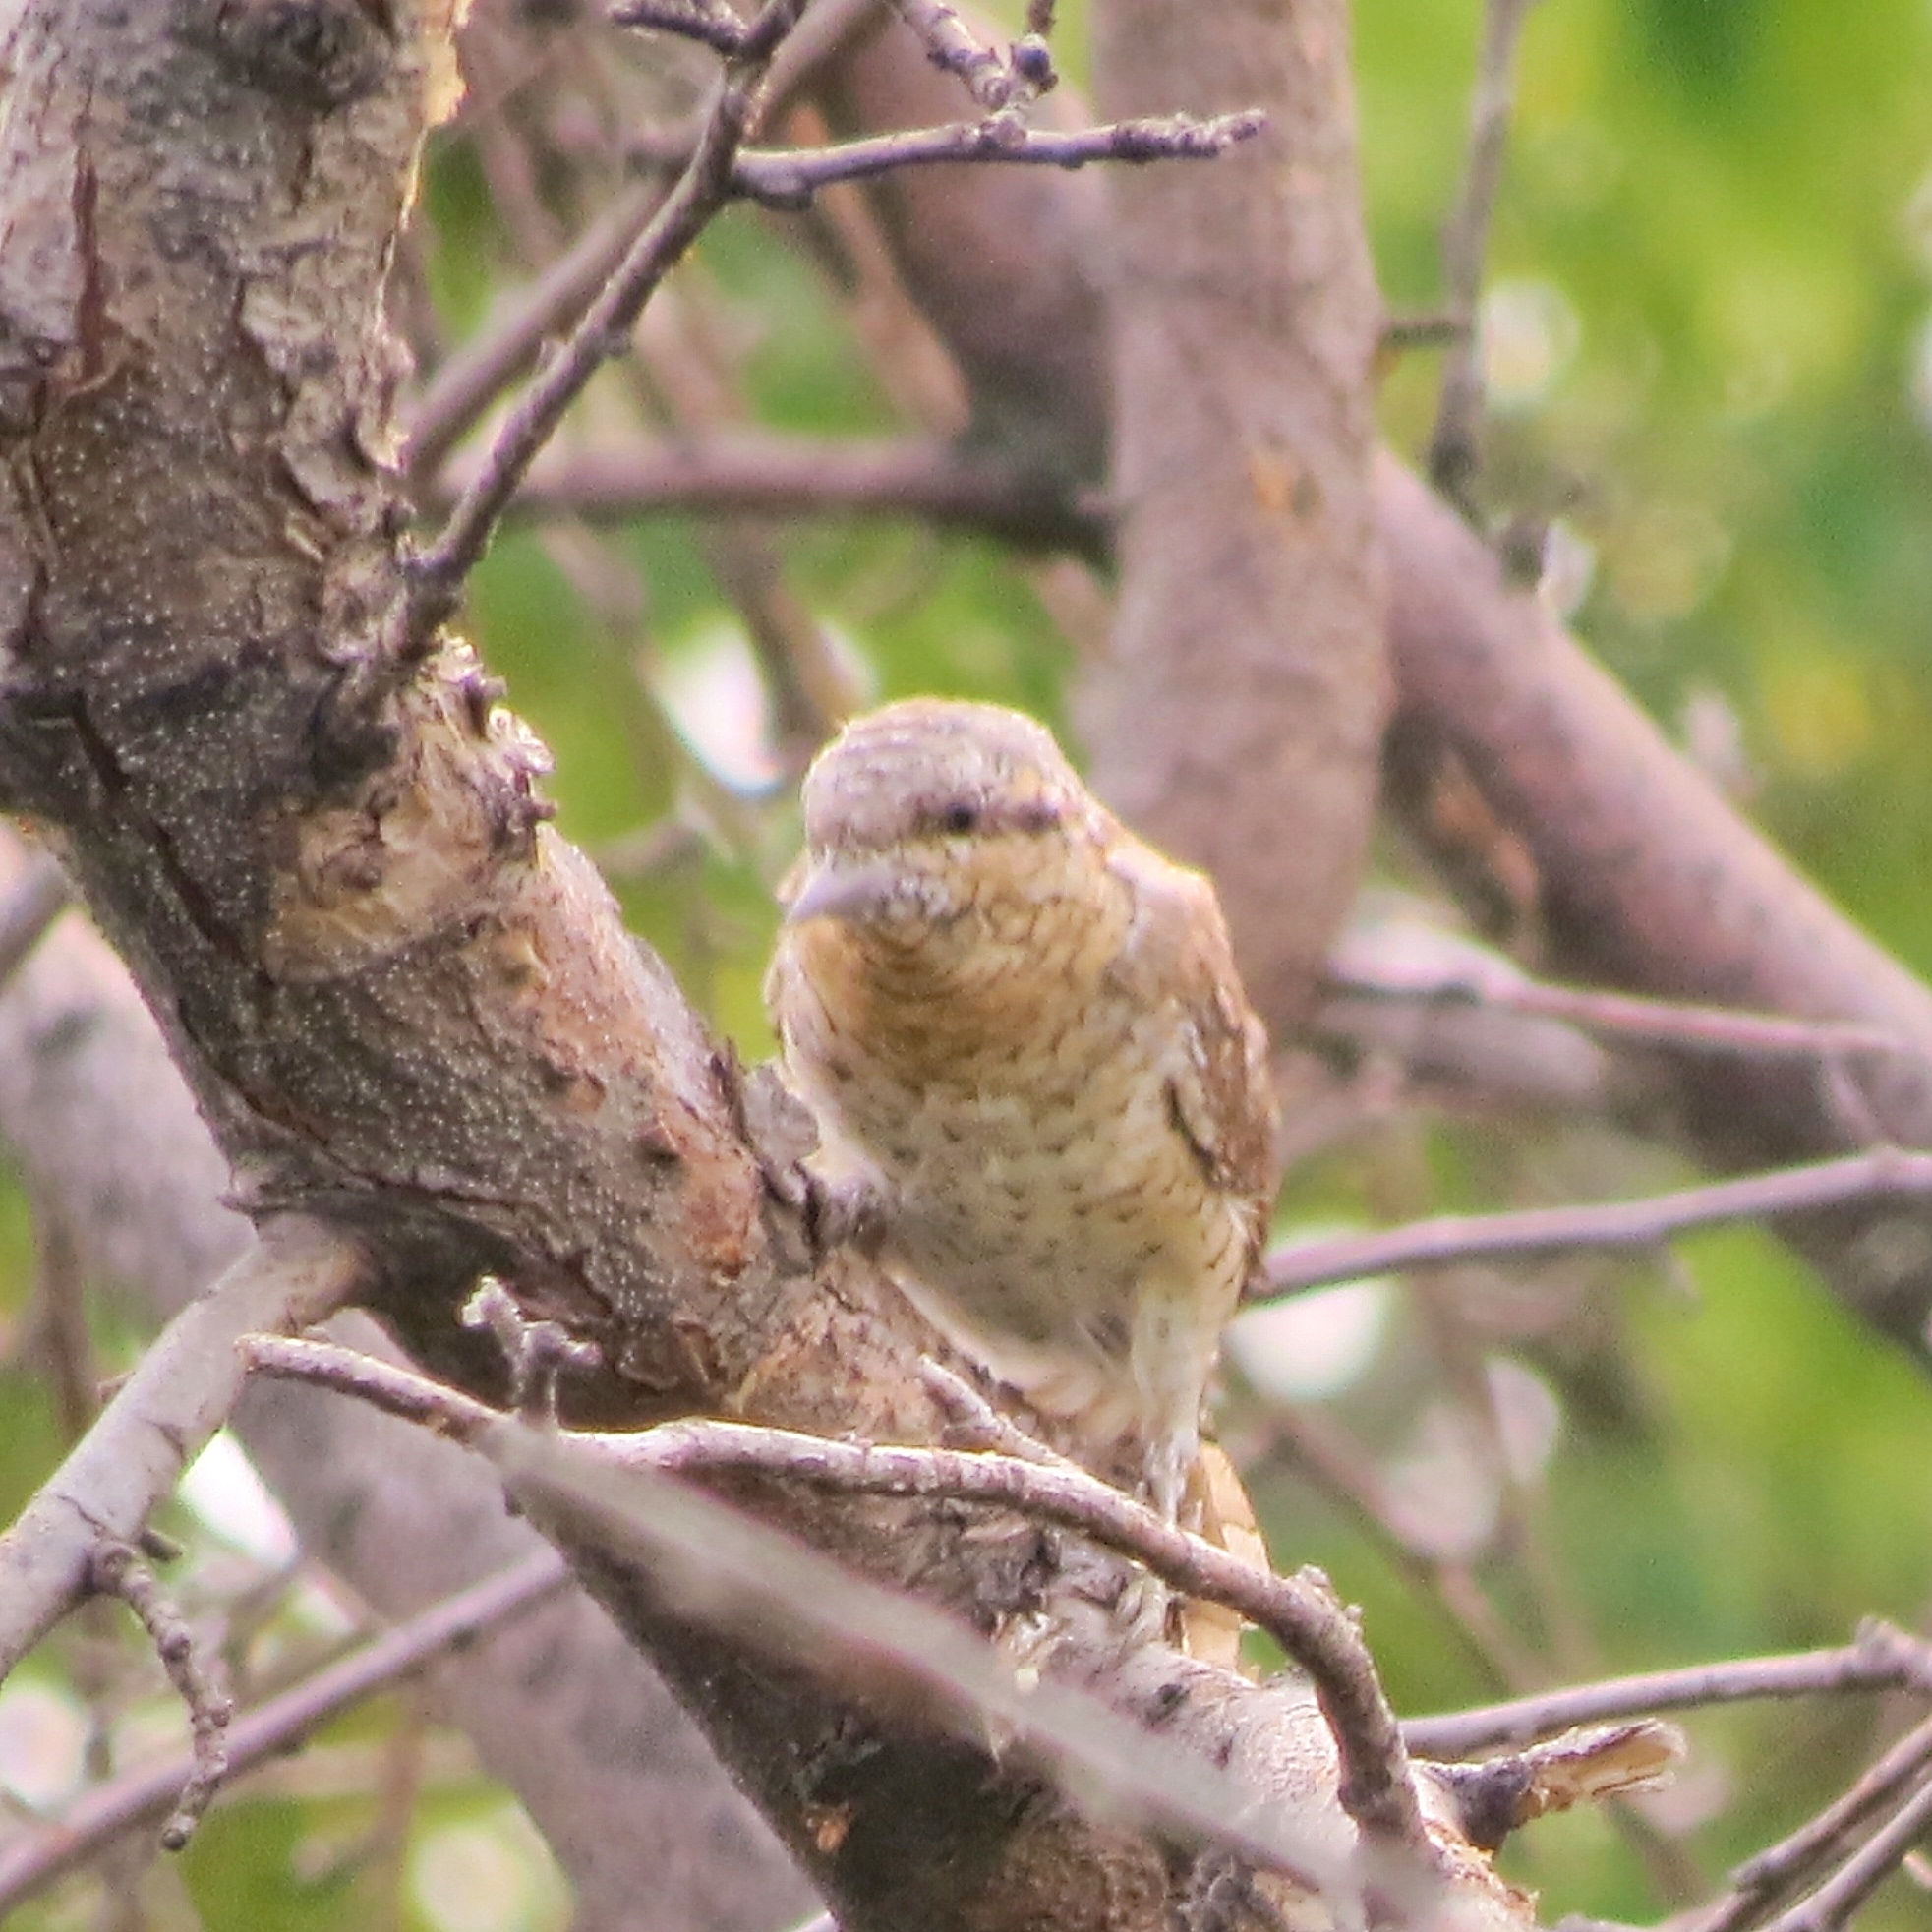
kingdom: Animalia
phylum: Chordata
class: Aves
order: Piciformes
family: Picidae
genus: Jynx
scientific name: Jynx torquilla
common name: Eurasian wryneck
